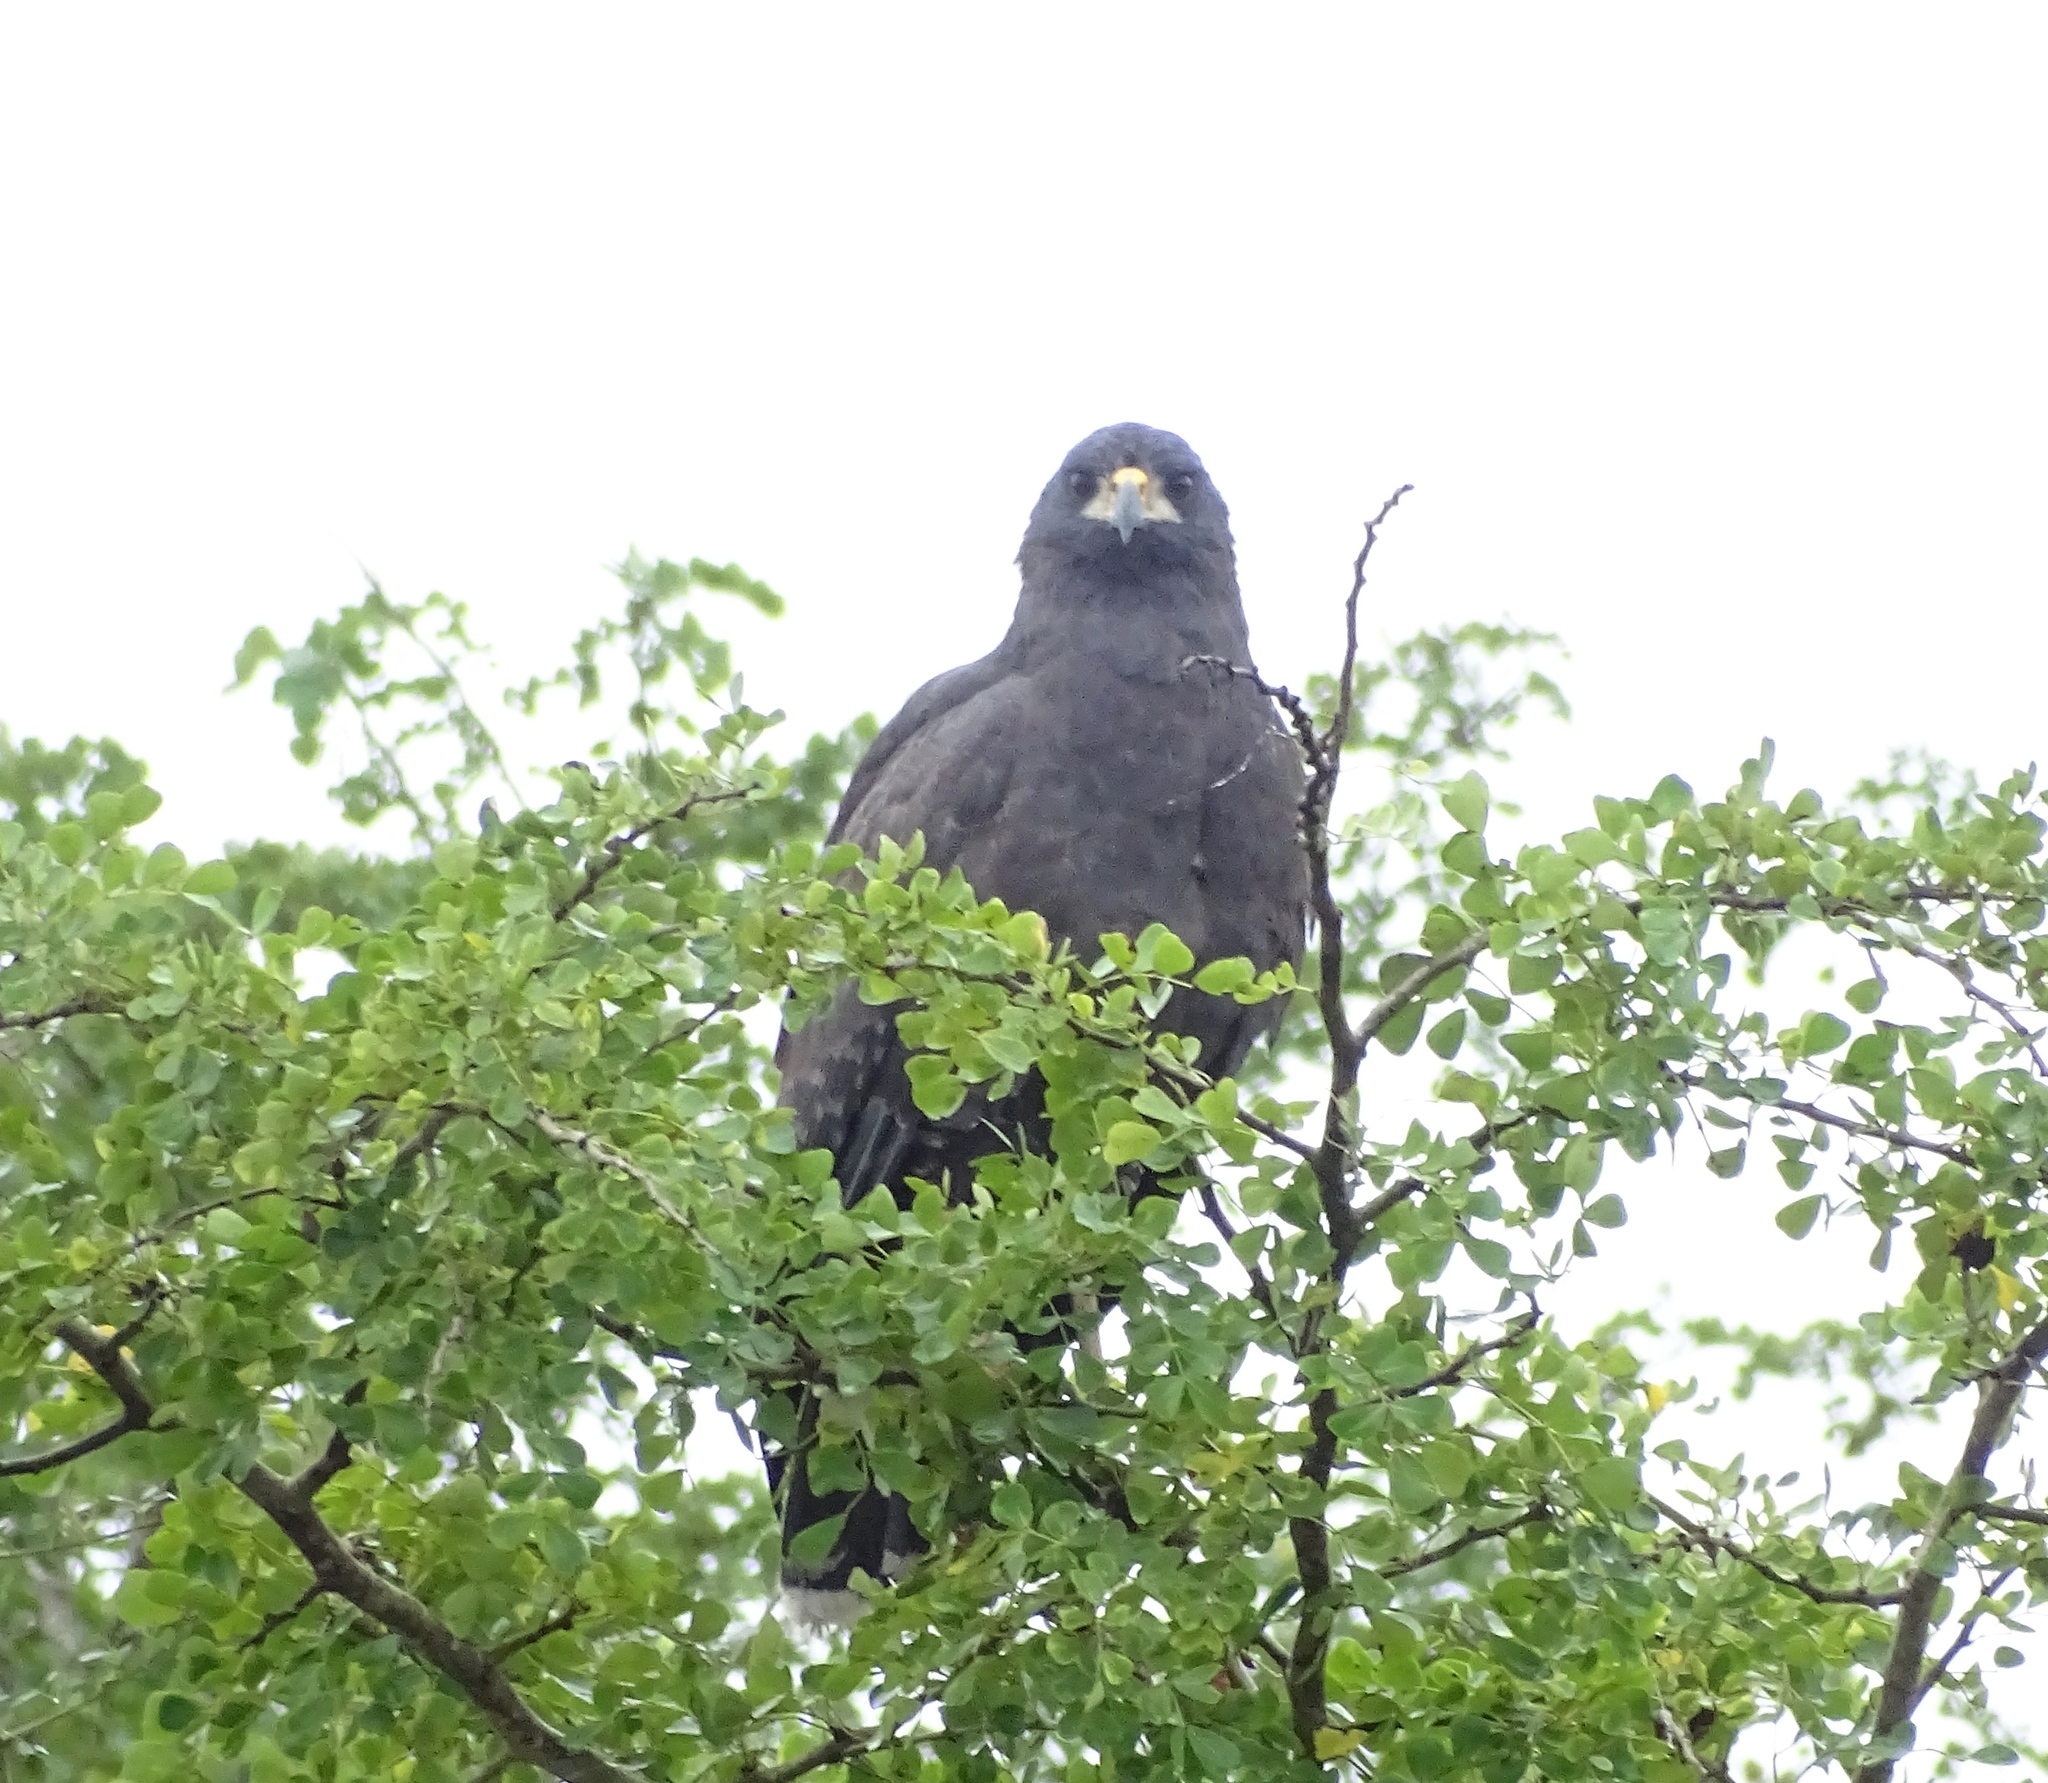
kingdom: Animalia
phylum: Chordata
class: Aves
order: Accipitriformes
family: Accipitridae
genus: Buteogallus
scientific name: Buteogallus urubitinga
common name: Great black hawk
